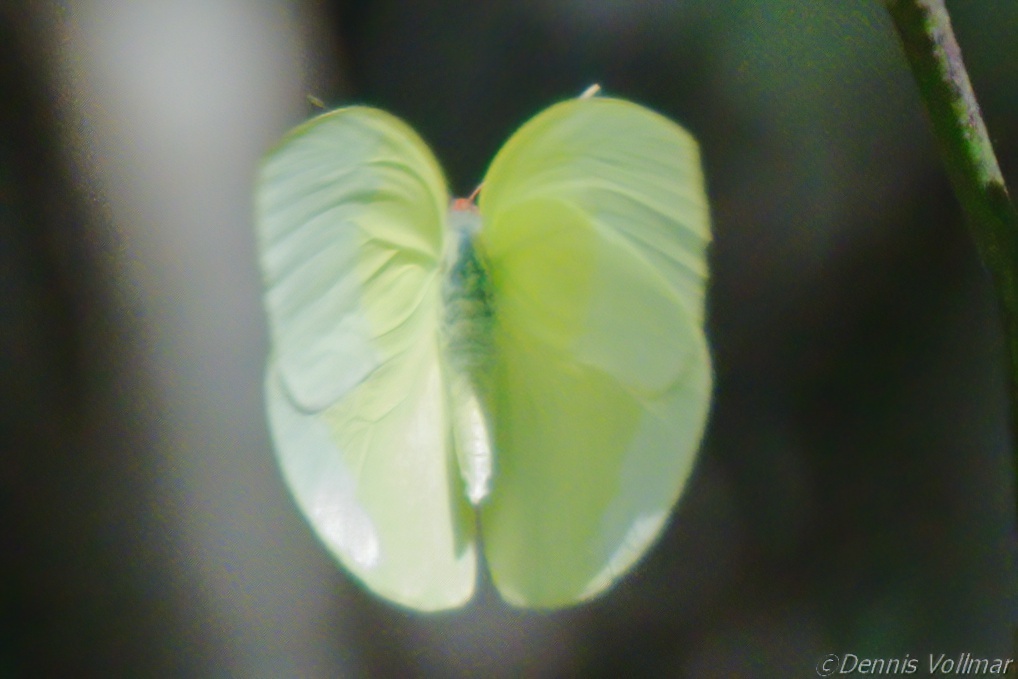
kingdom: Animalia
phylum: Arthropoda
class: Insecta
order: Lepidoptera
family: Pieridae
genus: Aphrissa
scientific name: Aphrissa statira
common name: Statira sulphur
